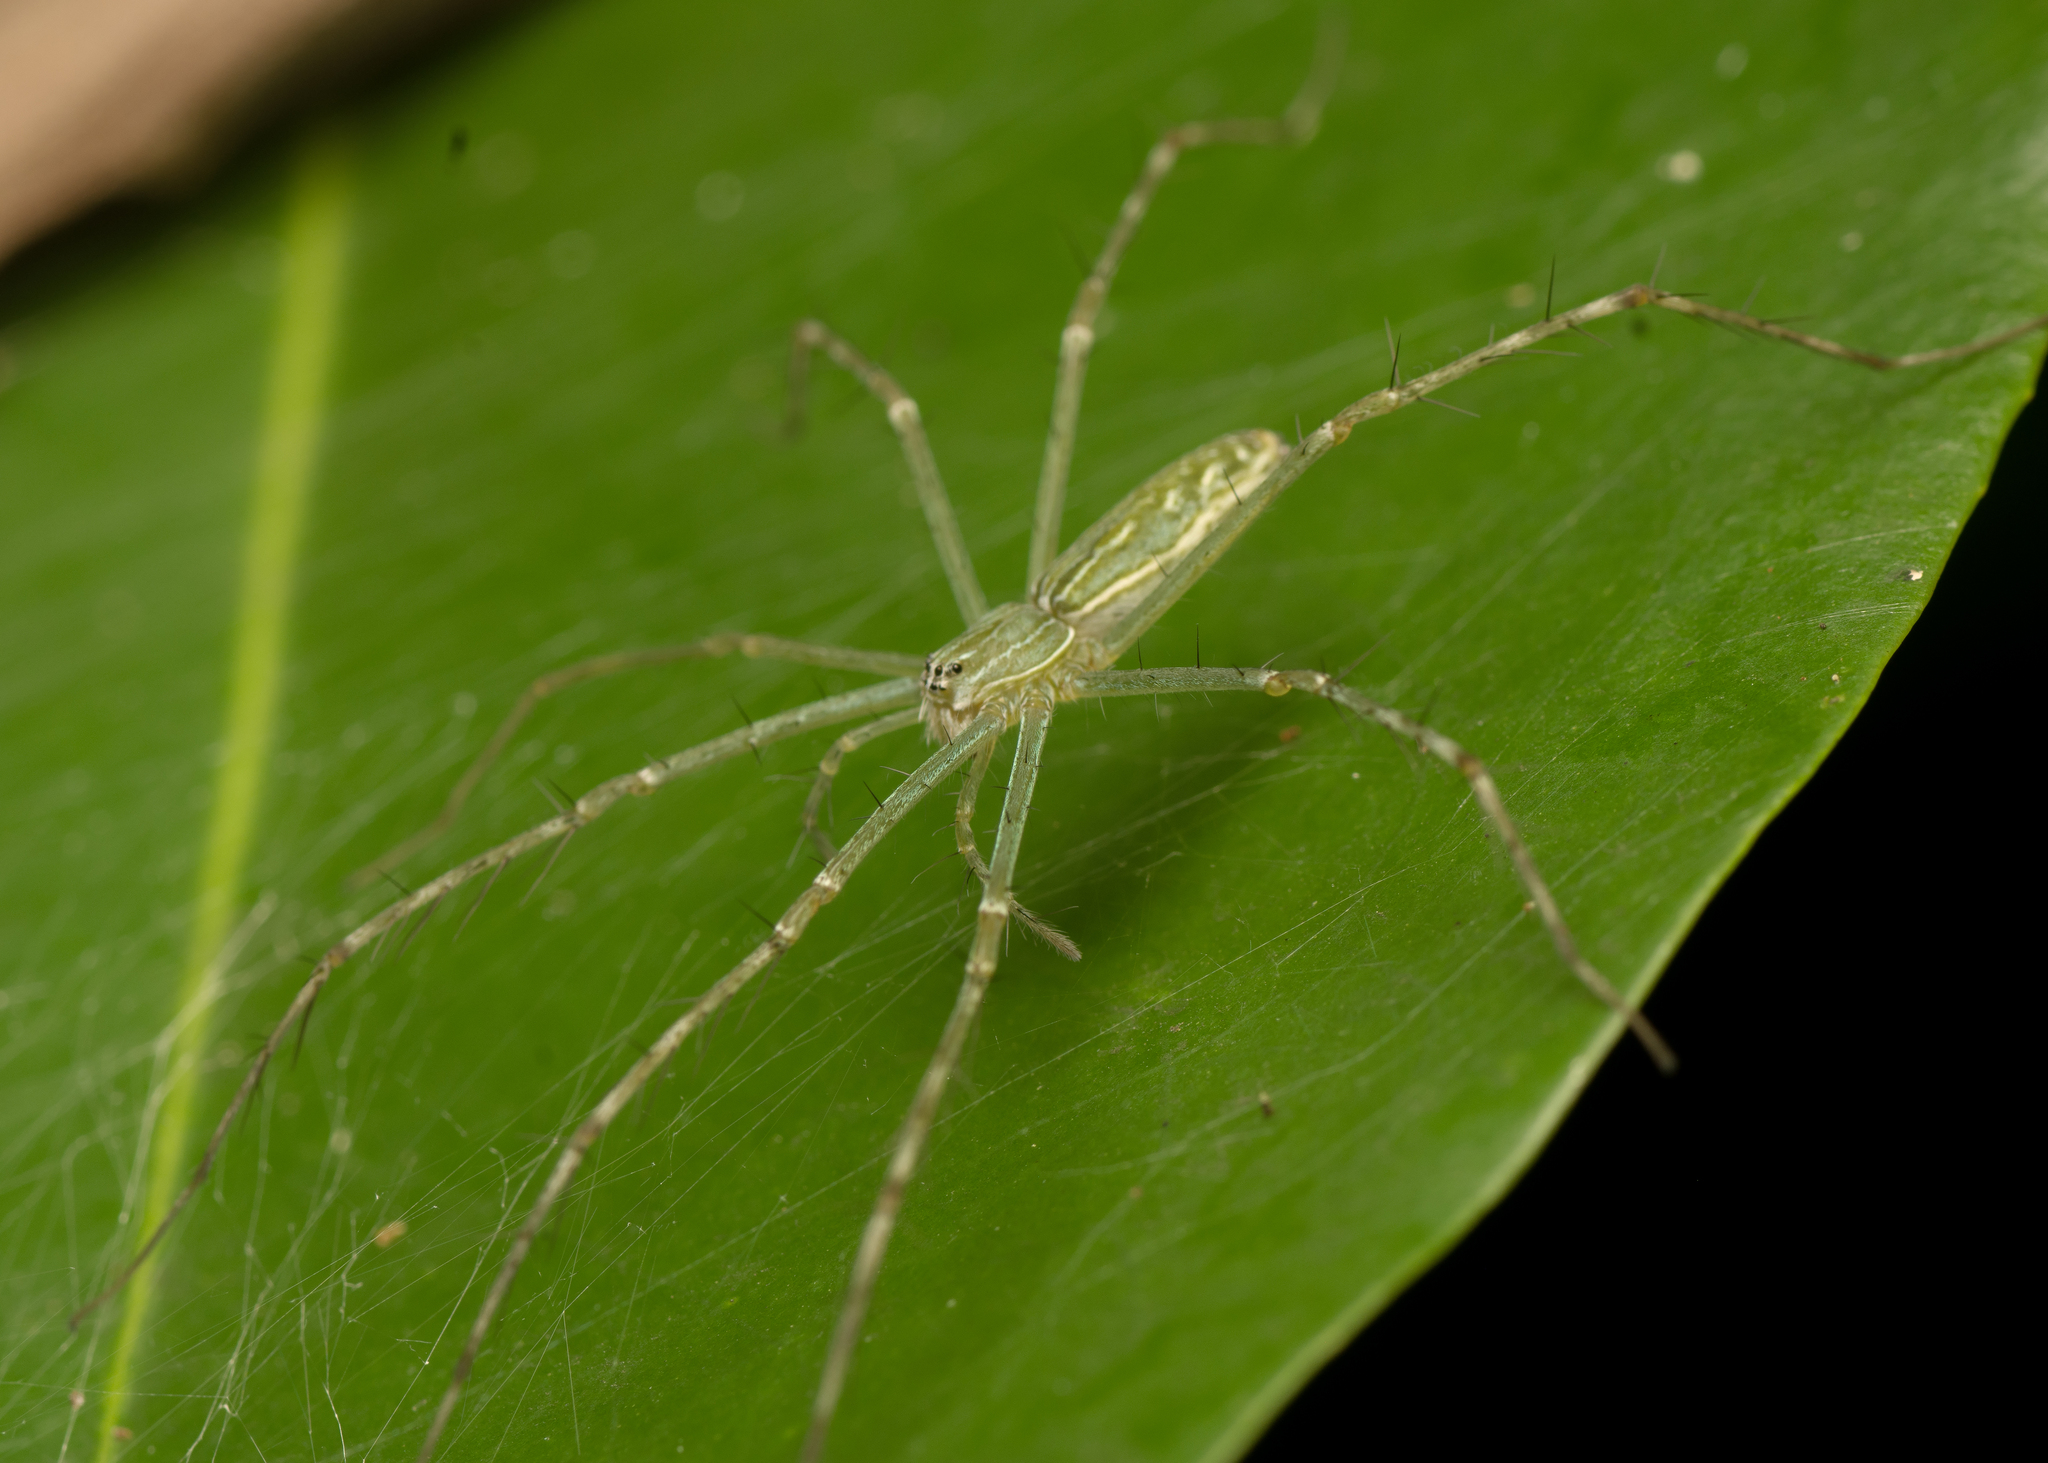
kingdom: Animalia
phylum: Arthropoda
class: Arachnida
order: Araneae
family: Pisauridae
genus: Hygropoda
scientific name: Hygropoda lineata
